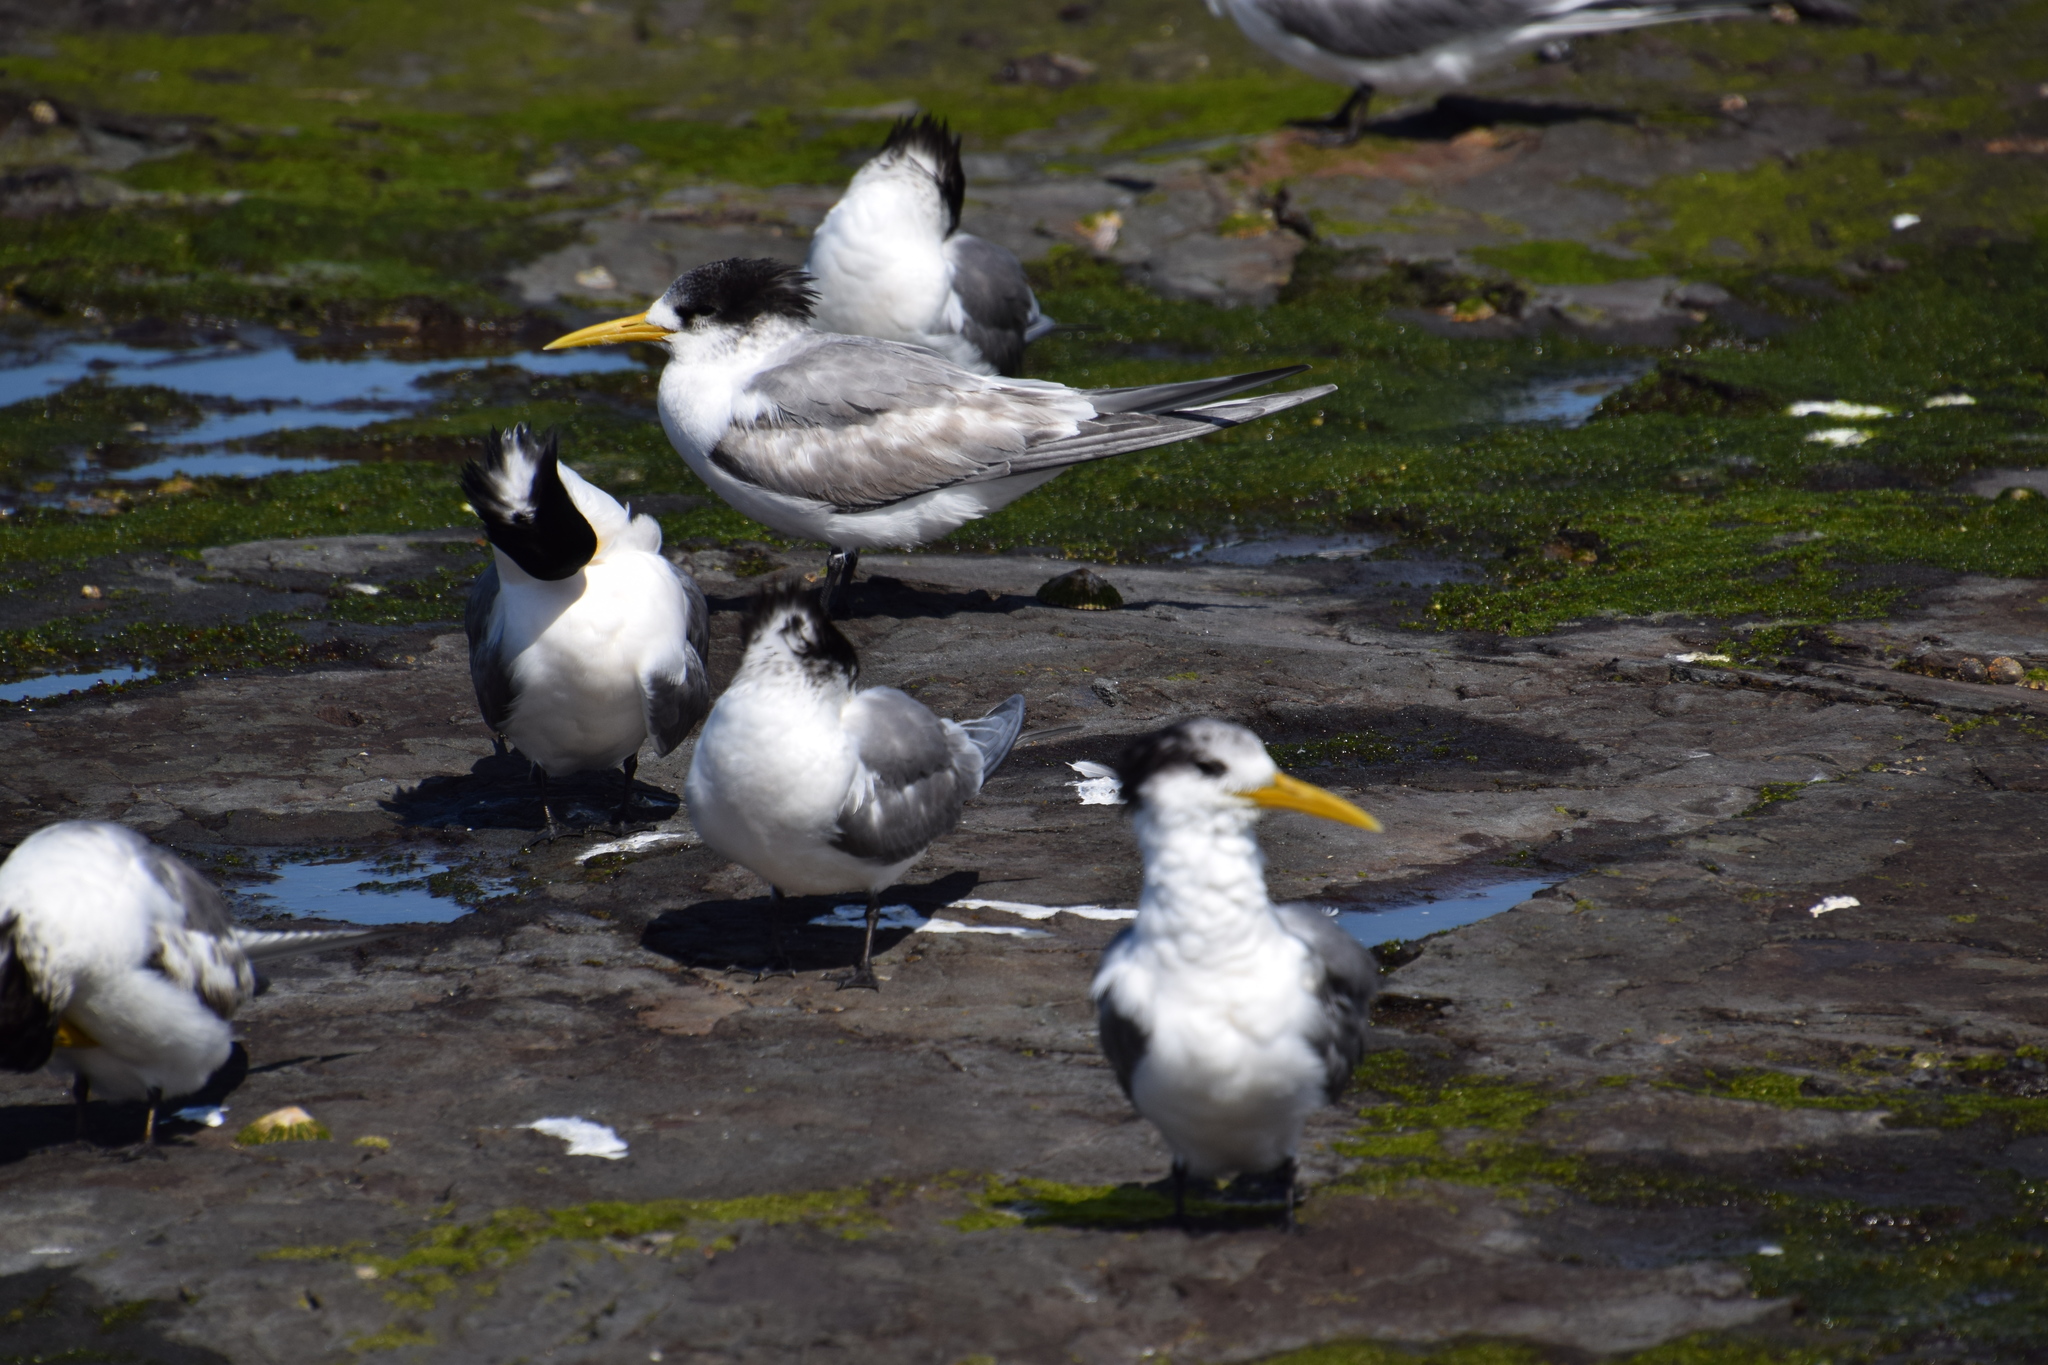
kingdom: Animalia
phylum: Chordata
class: Aves
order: Charadriiformes
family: Laridae
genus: Thalasseus
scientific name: Thalasseus bergii
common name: Greater crested tern
